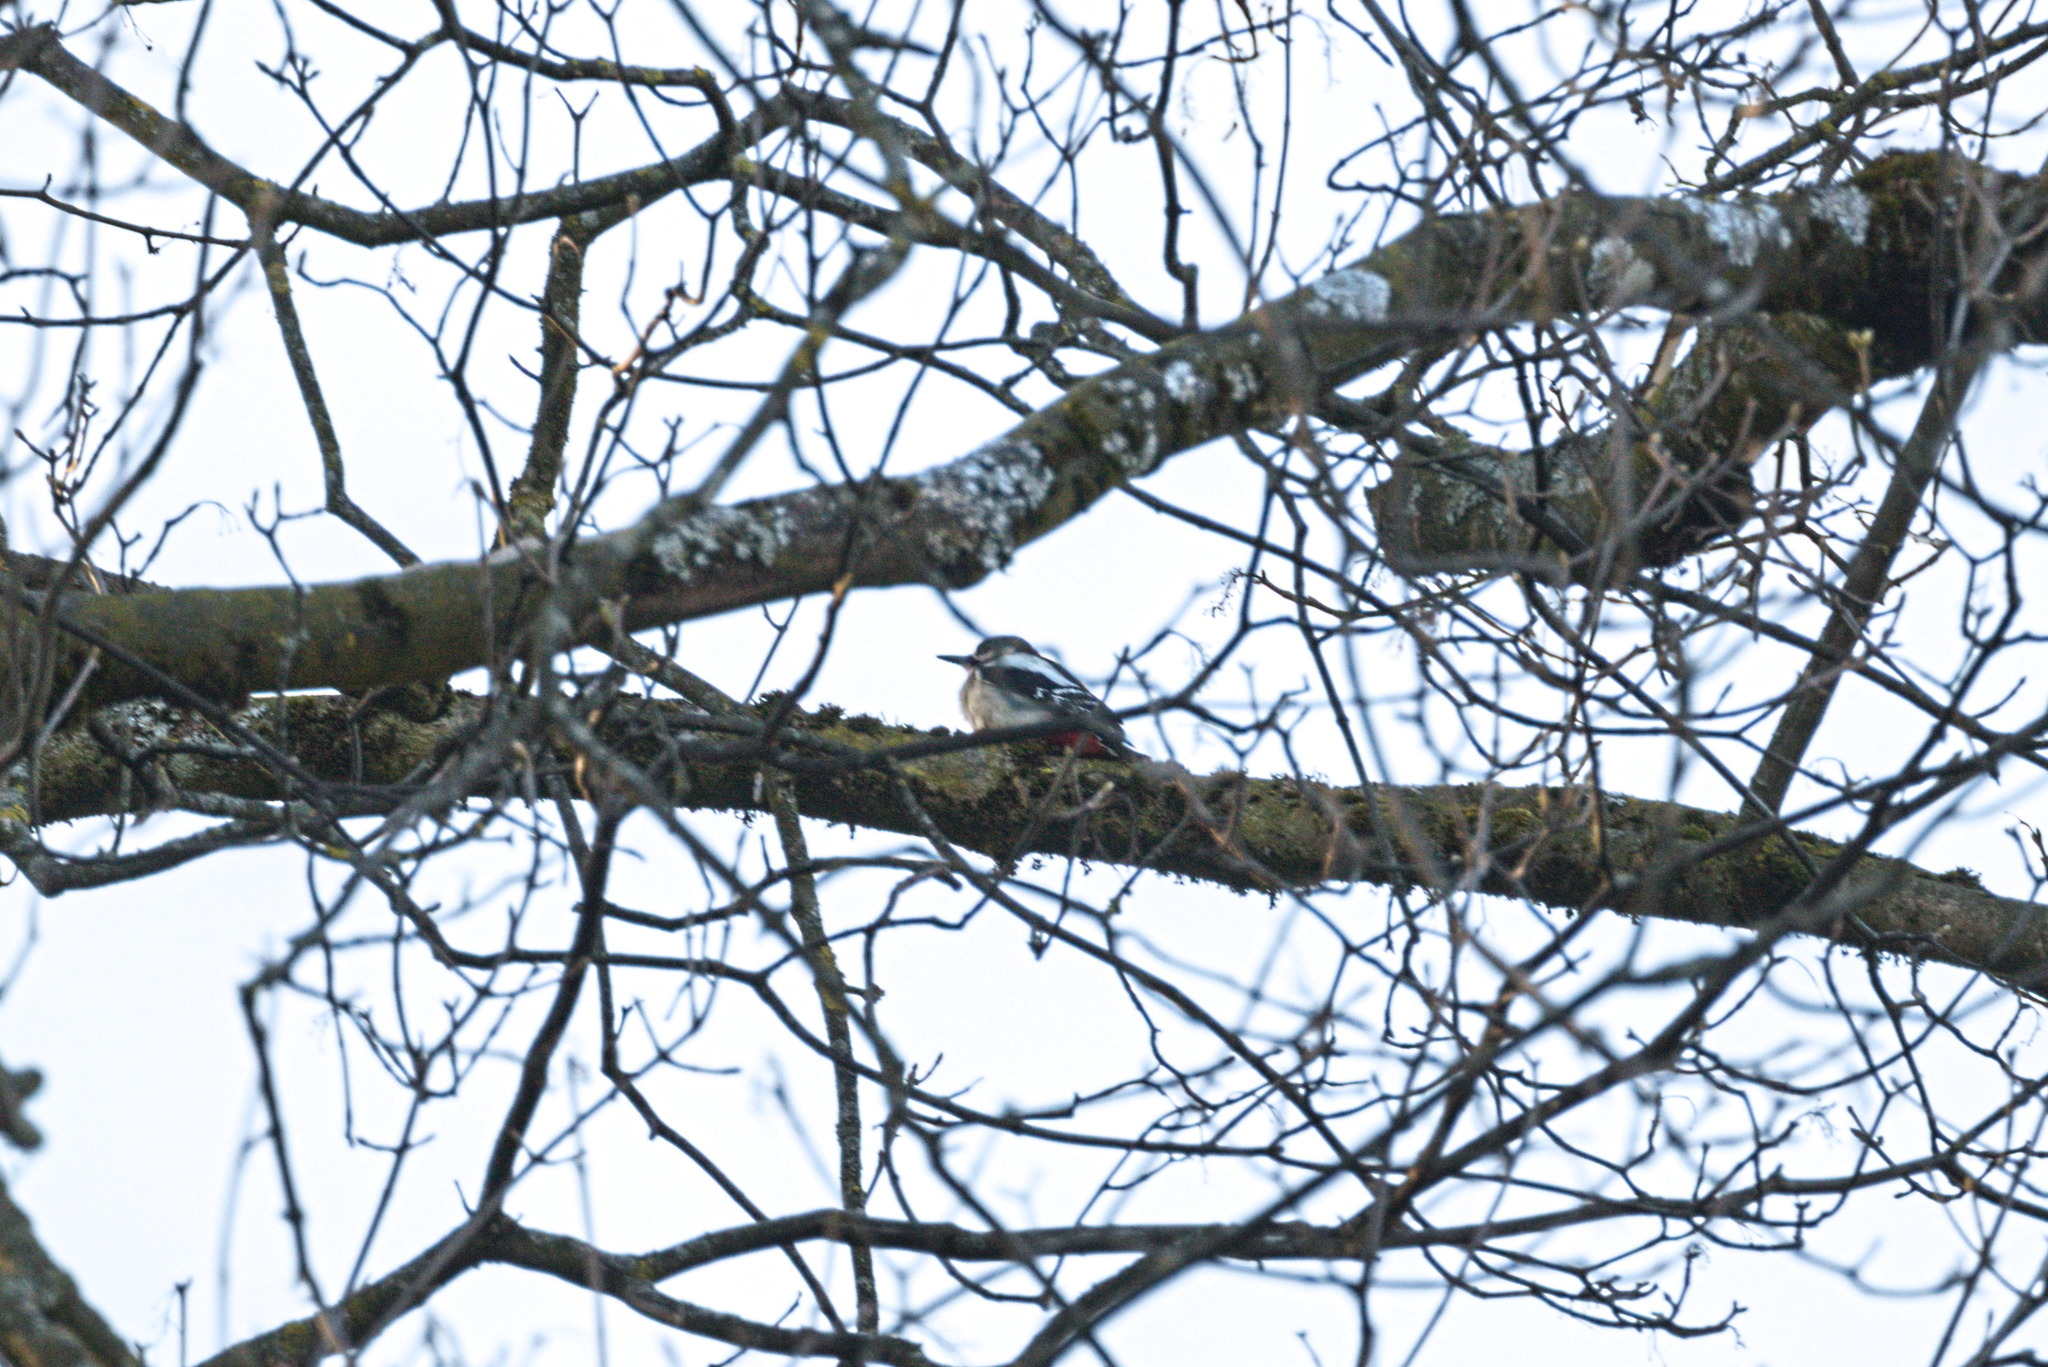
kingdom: Animalia
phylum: Chordata
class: Aves
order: Piciformes
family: Picidae
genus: Dendrocopos
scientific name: Dendrocopos major
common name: Great spotted woodpecker
